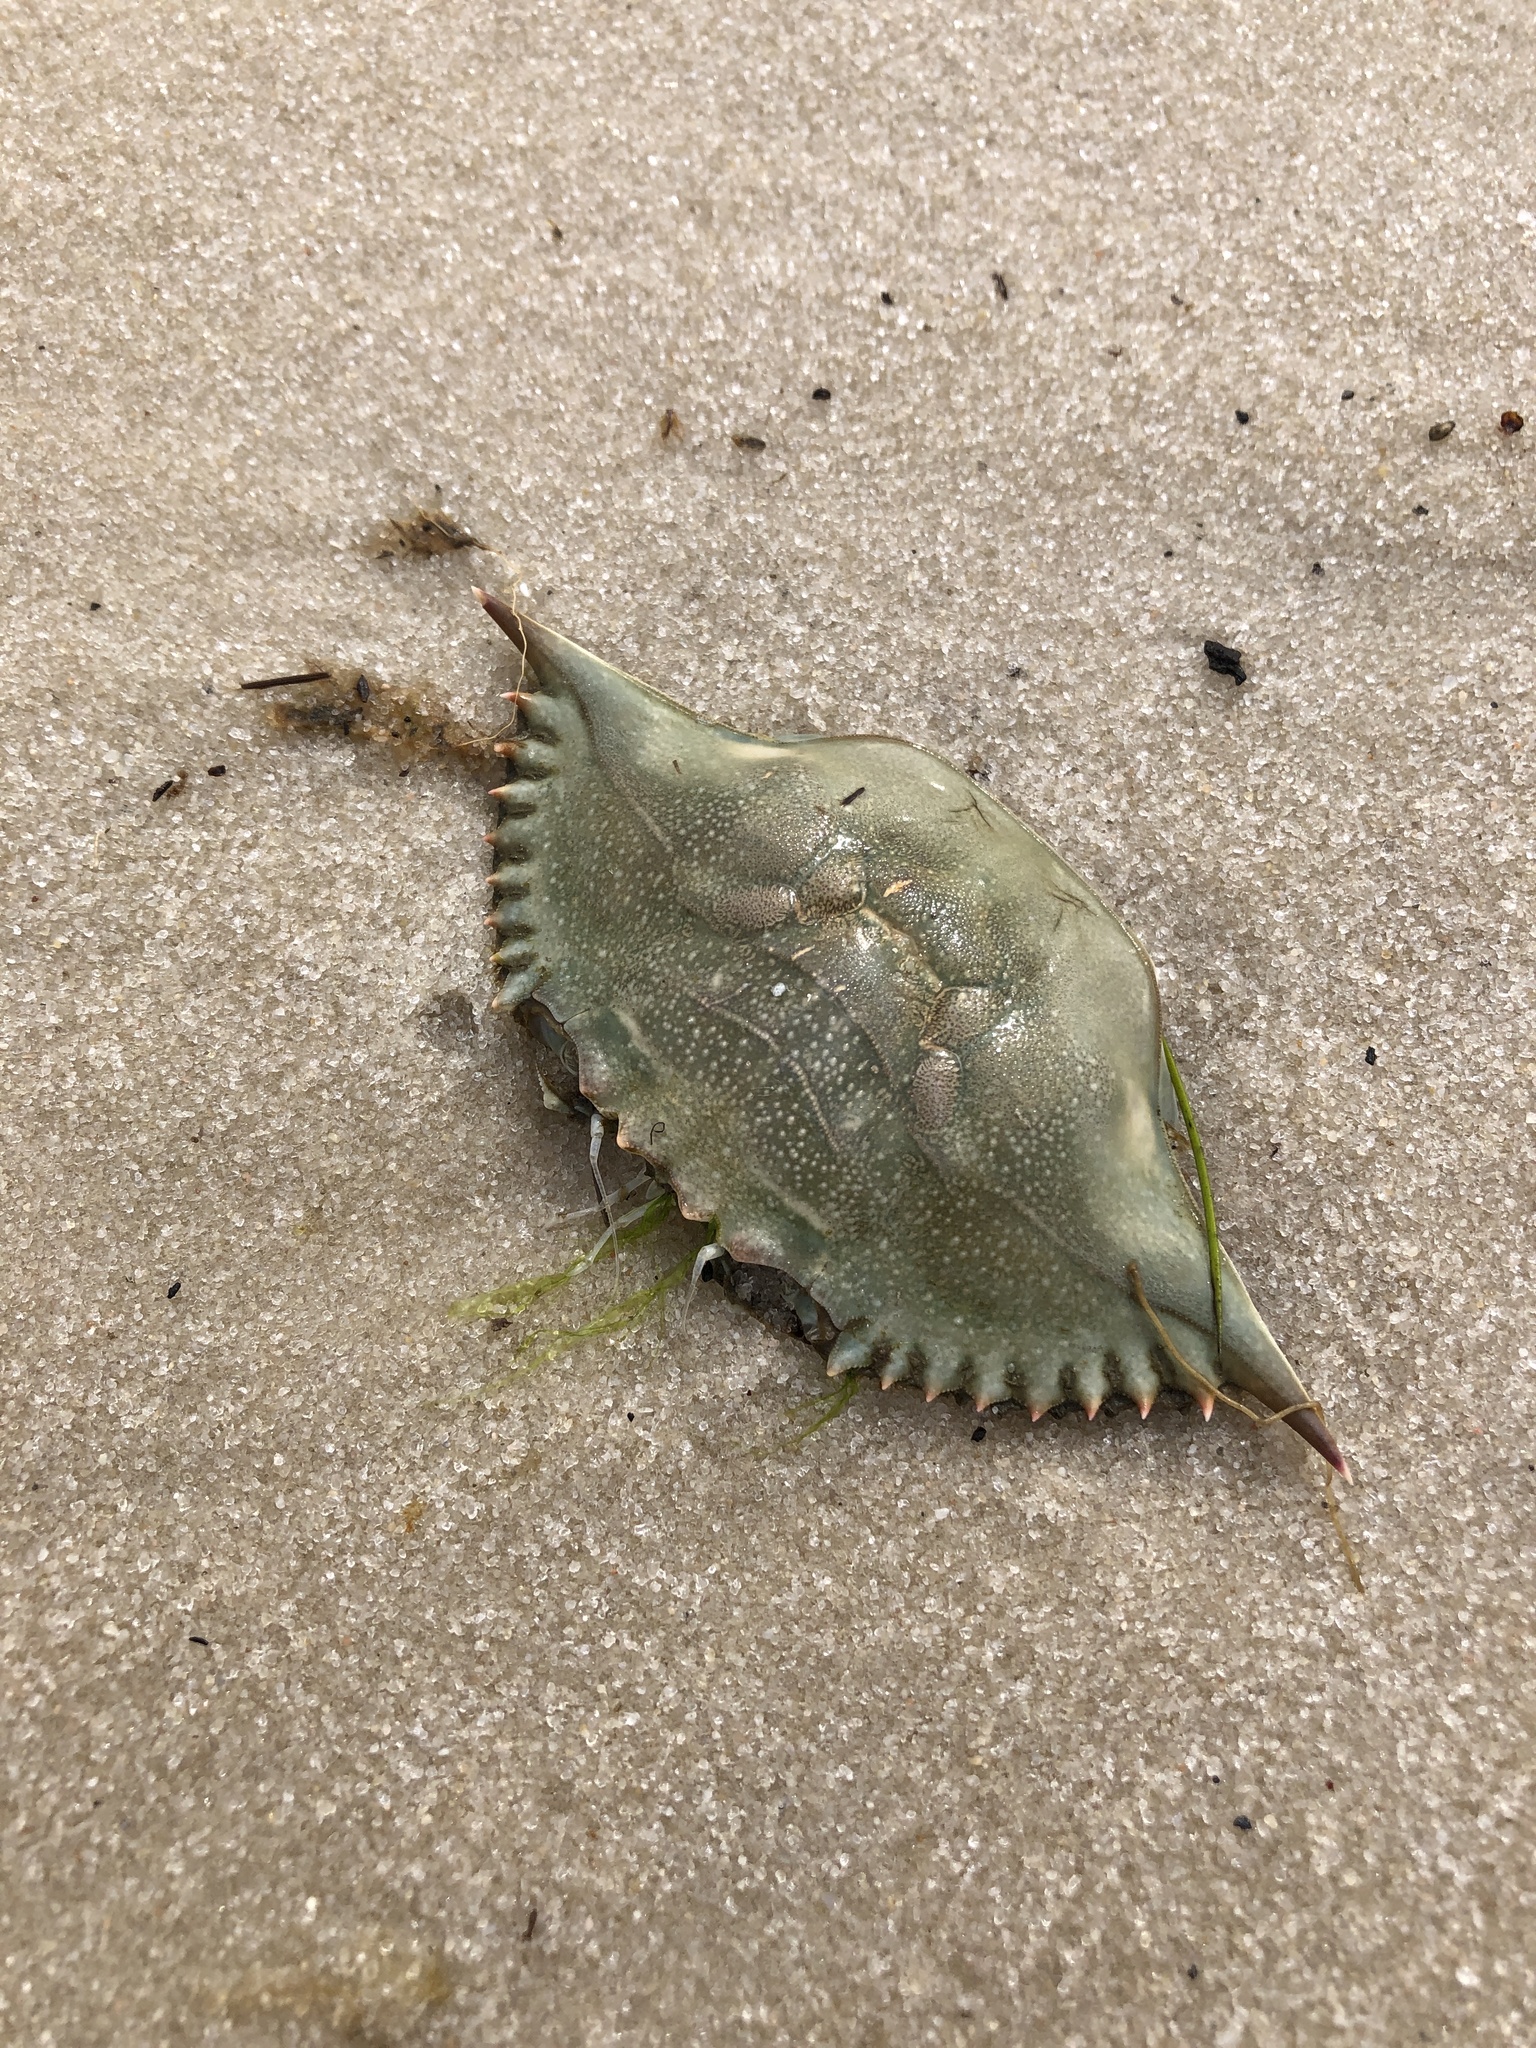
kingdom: Animalia
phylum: Arthropoda
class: Malacostraca
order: Decapoda
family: Portunidae
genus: Callinectes
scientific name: Callinectes sapidus
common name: Blue crab
